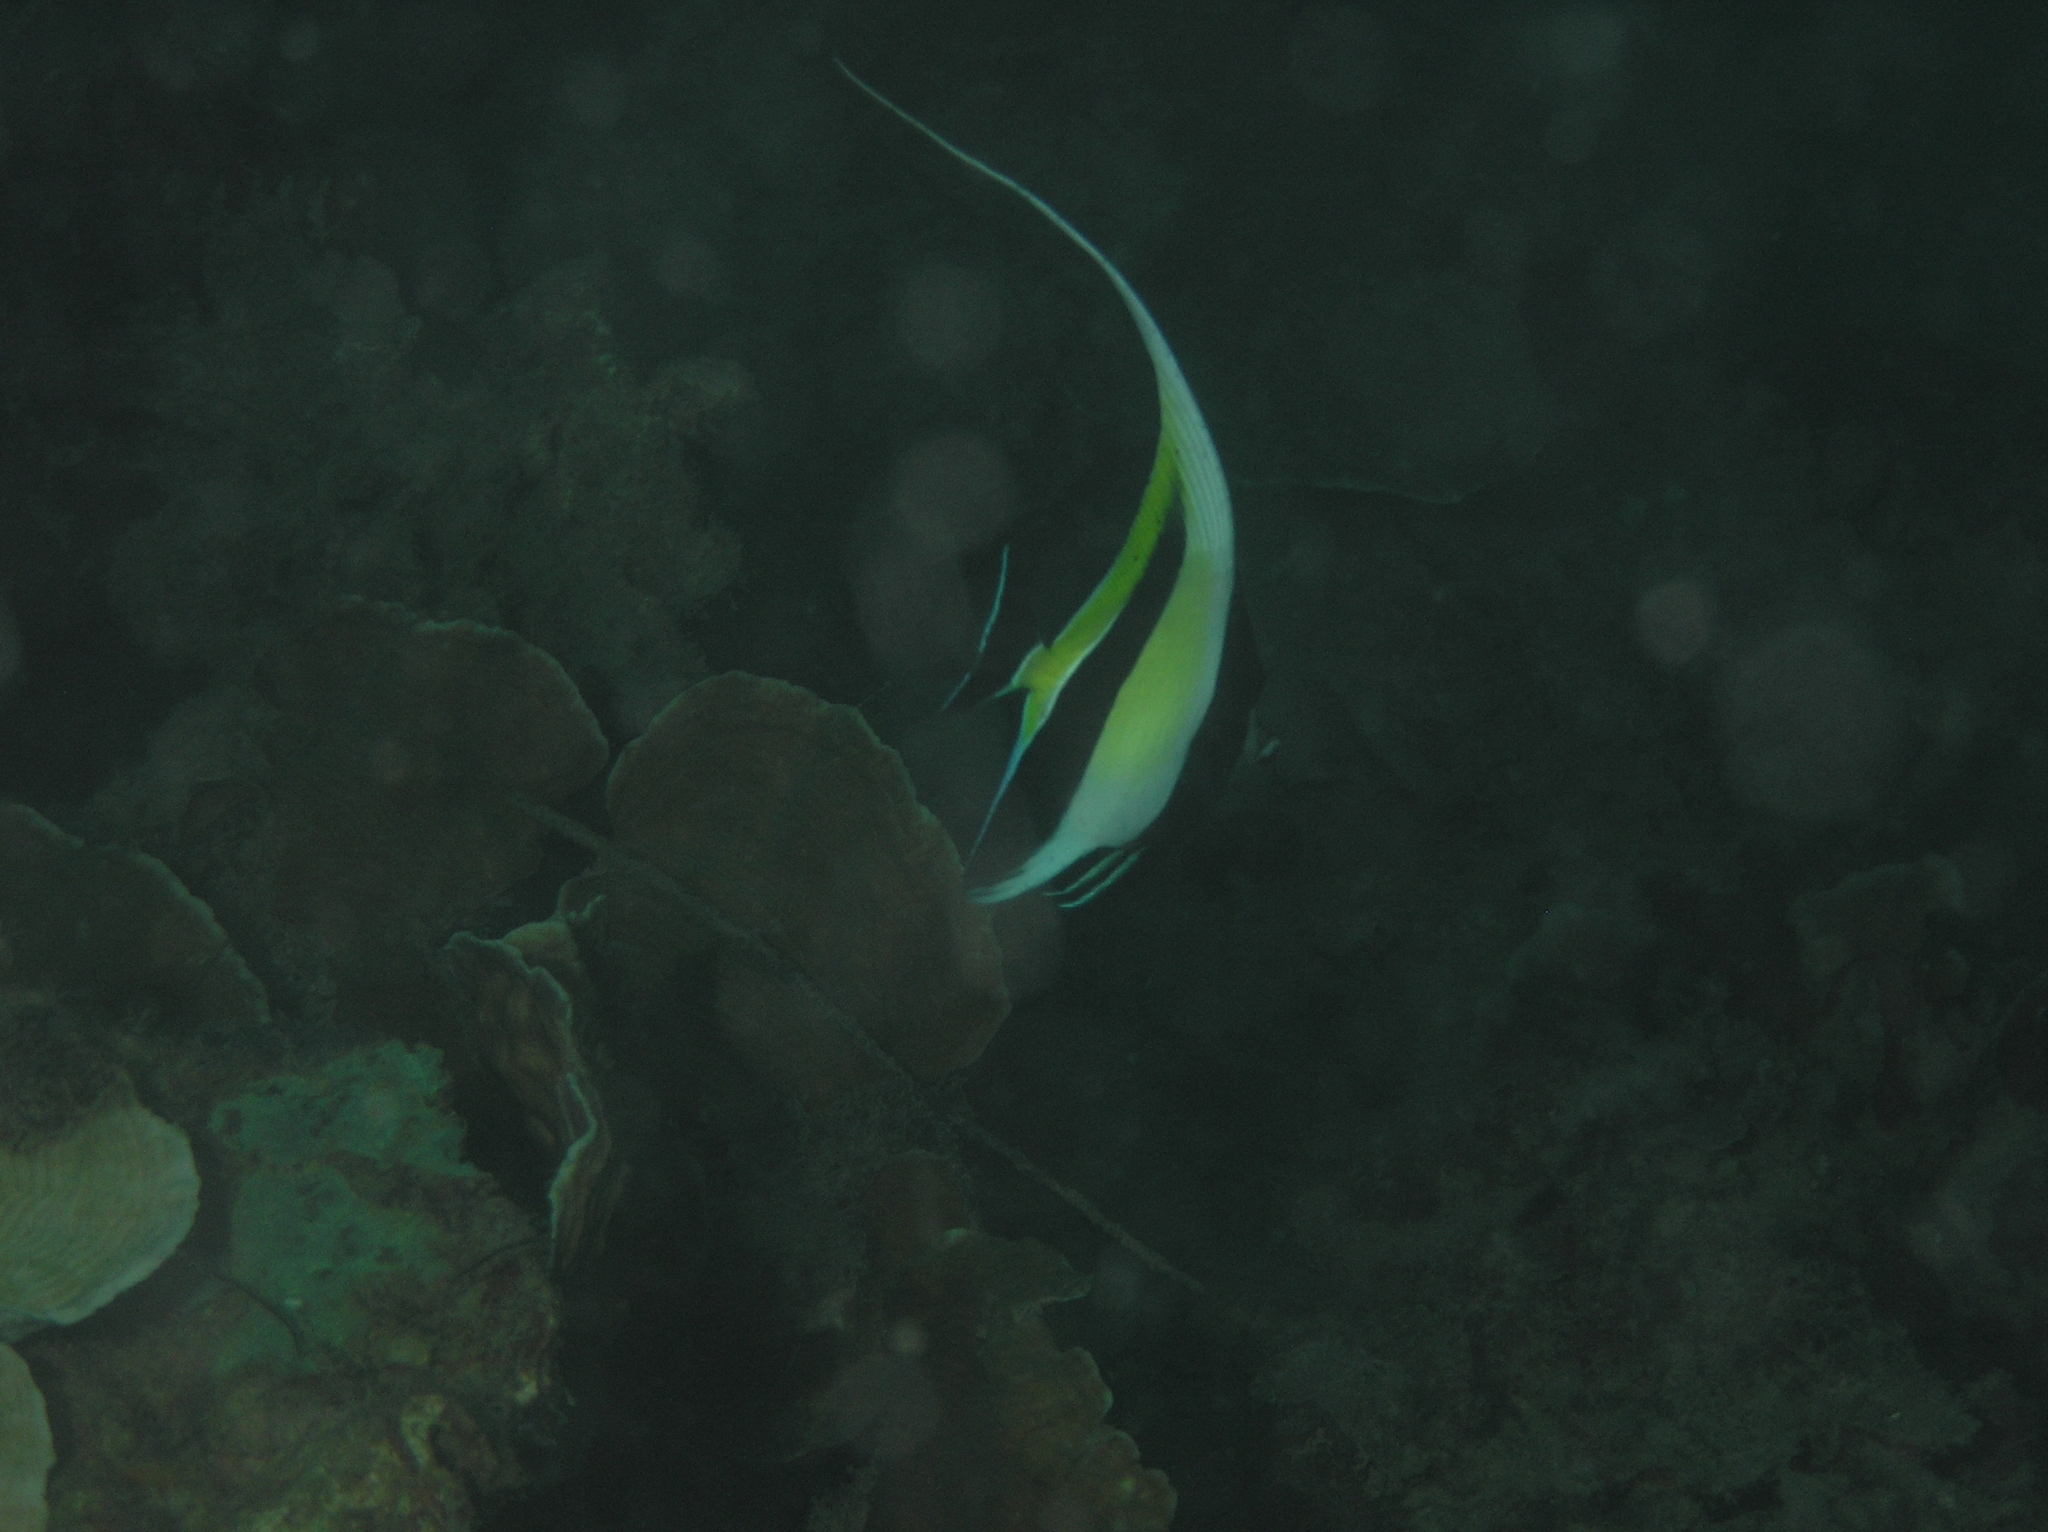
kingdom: Animalia
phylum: Chordata
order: Perciformes
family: Zanclidae
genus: Zanclus
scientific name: Zanclus cornutus
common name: Moorish idol
